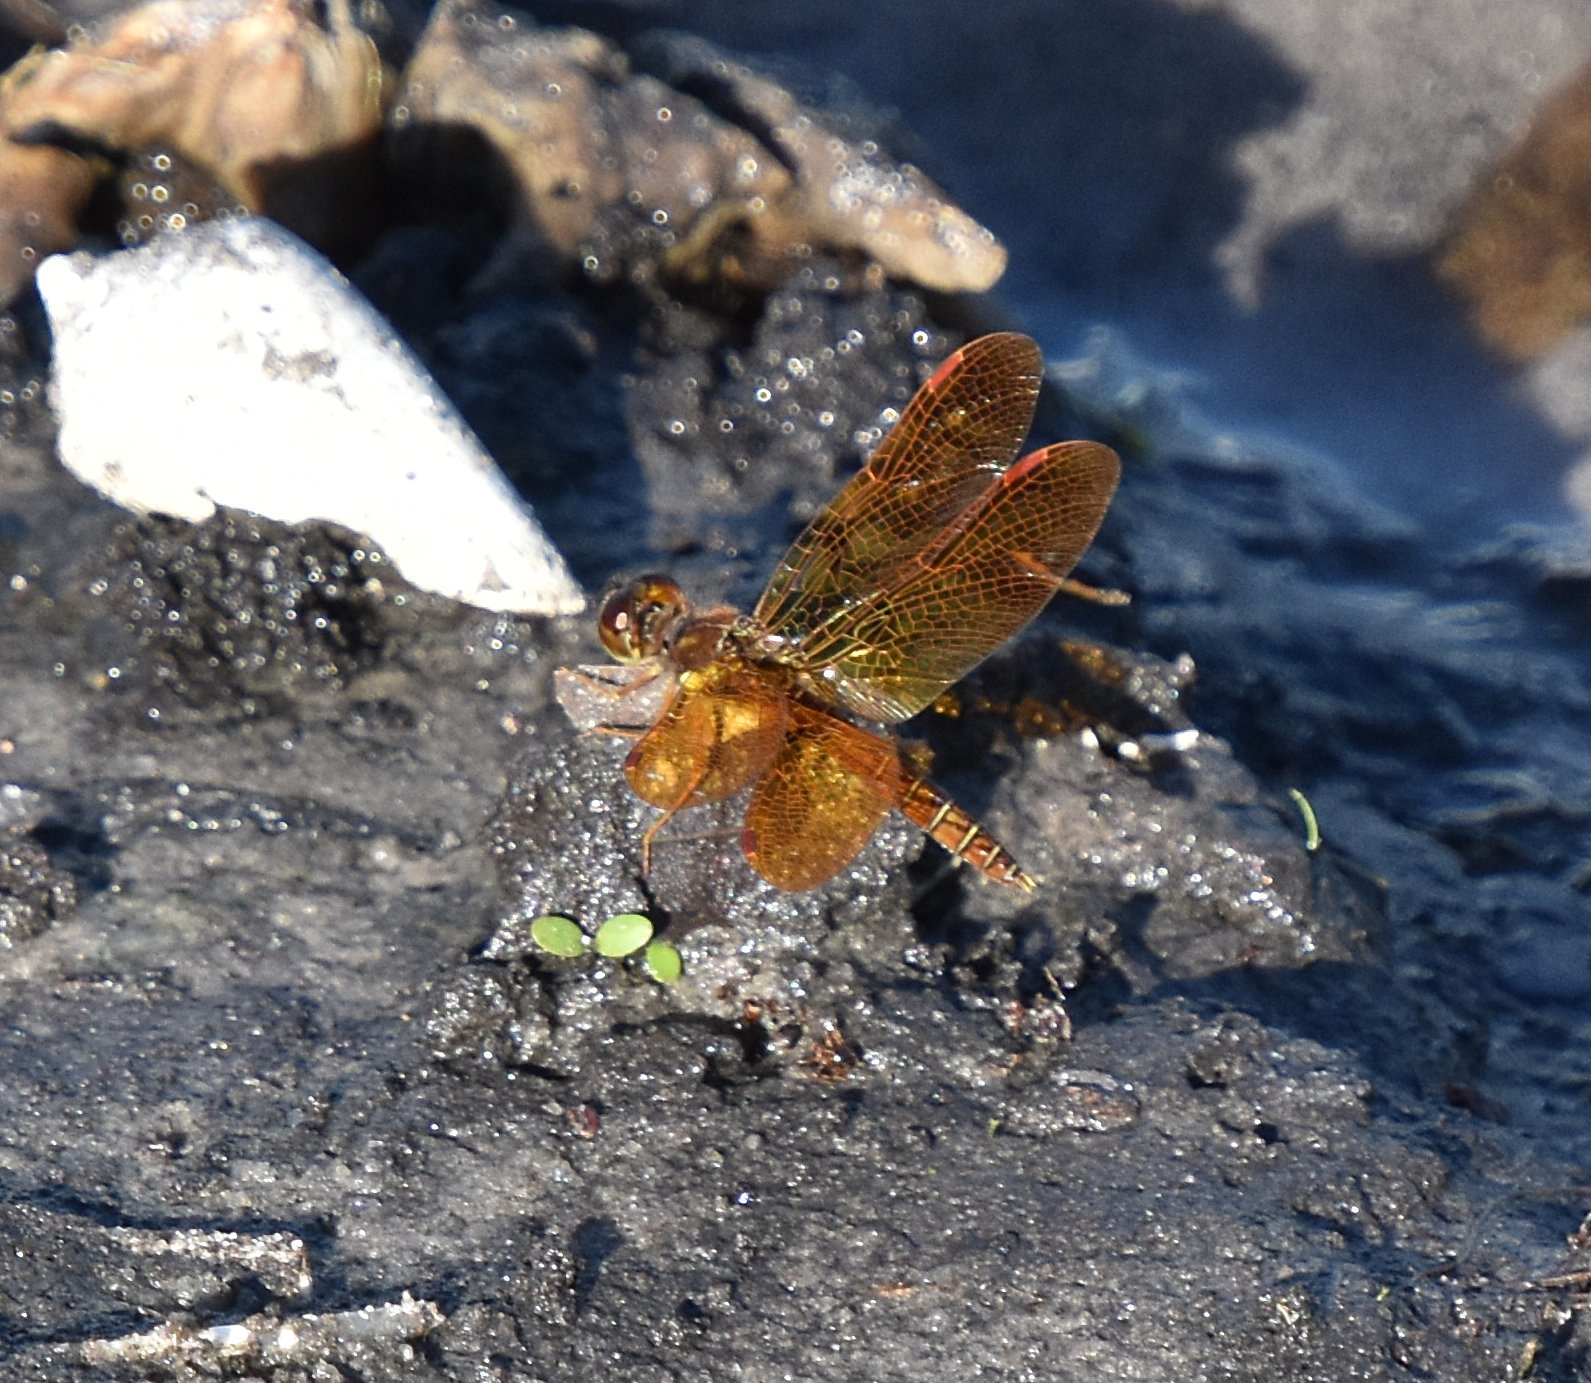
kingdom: Animalia
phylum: Arthropoda
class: Insecta
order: Odonata
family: Libellulidae
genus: Perithemis
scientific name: Perithemis tenera
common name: Eastern amberwing
